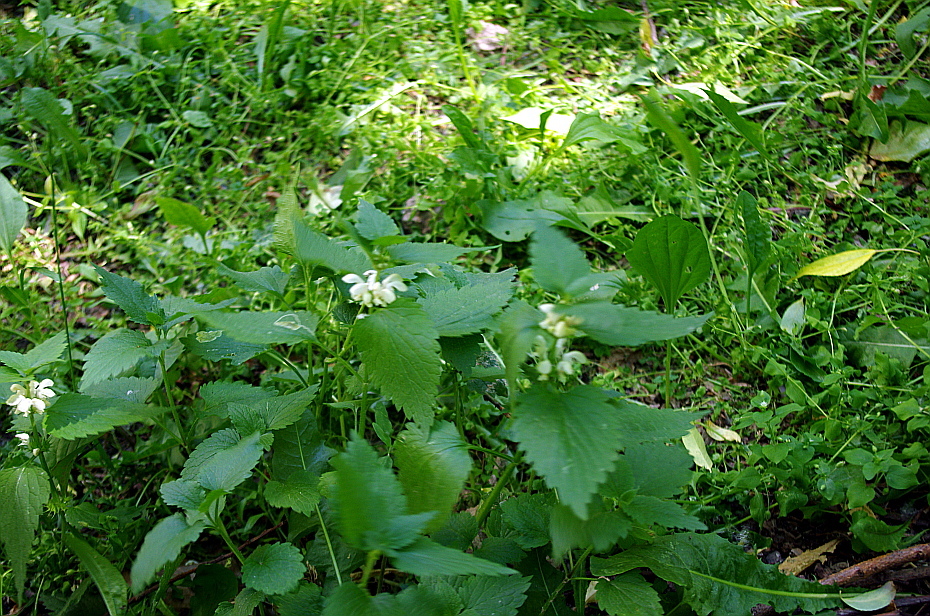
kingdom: Plantae
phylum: Tracheophyta
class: Magnoliopsida
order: Lamiales
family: Lamiaceae
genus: Lamium
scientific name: Lamium album
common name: White dead-nettle
